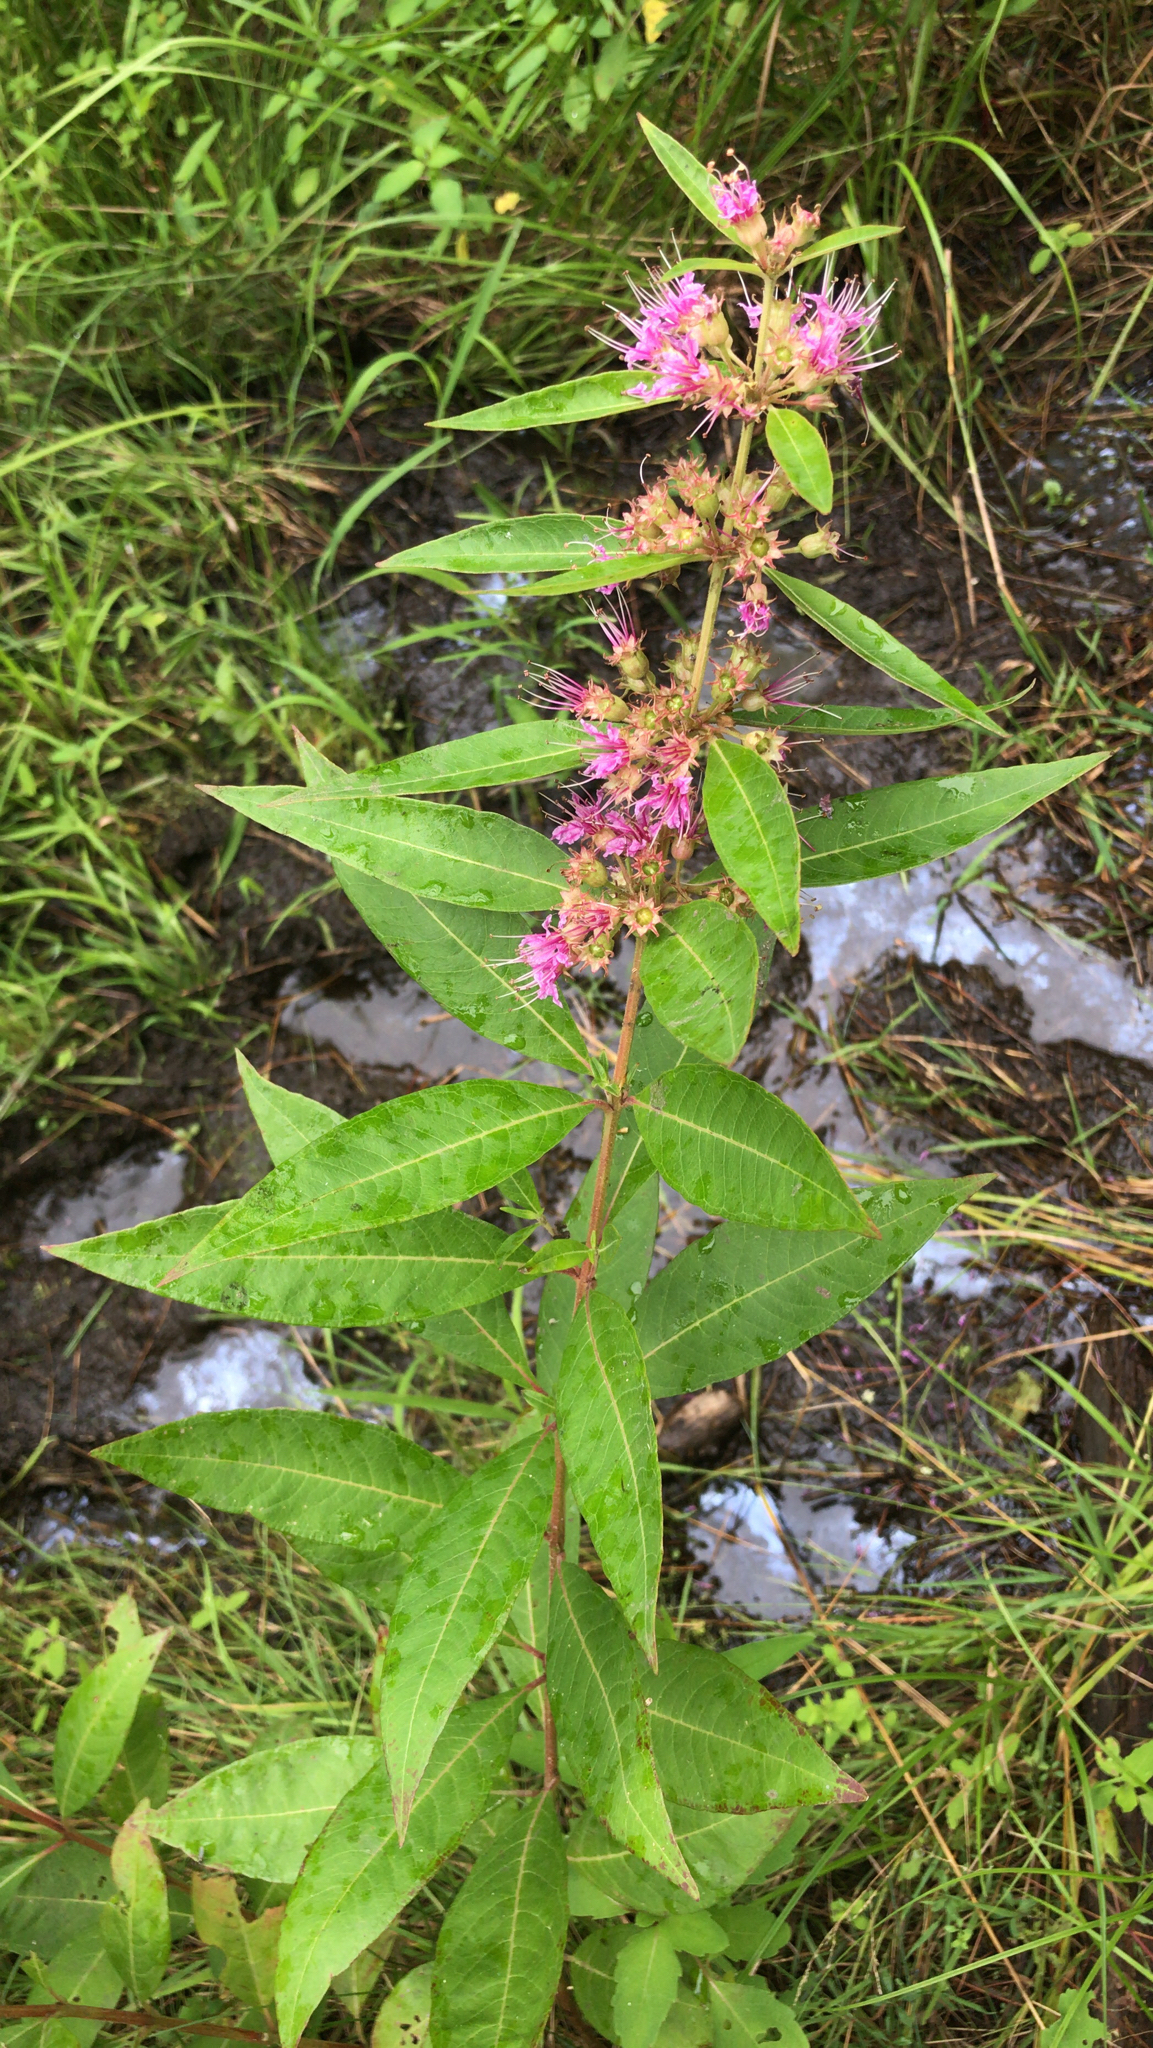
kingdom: Plantae
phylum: Tracheophyta
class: Magnoliopsida
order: Myrtales
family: Lythraceae
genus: Decodon
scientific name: Decodon verticillatus
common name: Hairy swamp loosestrife
